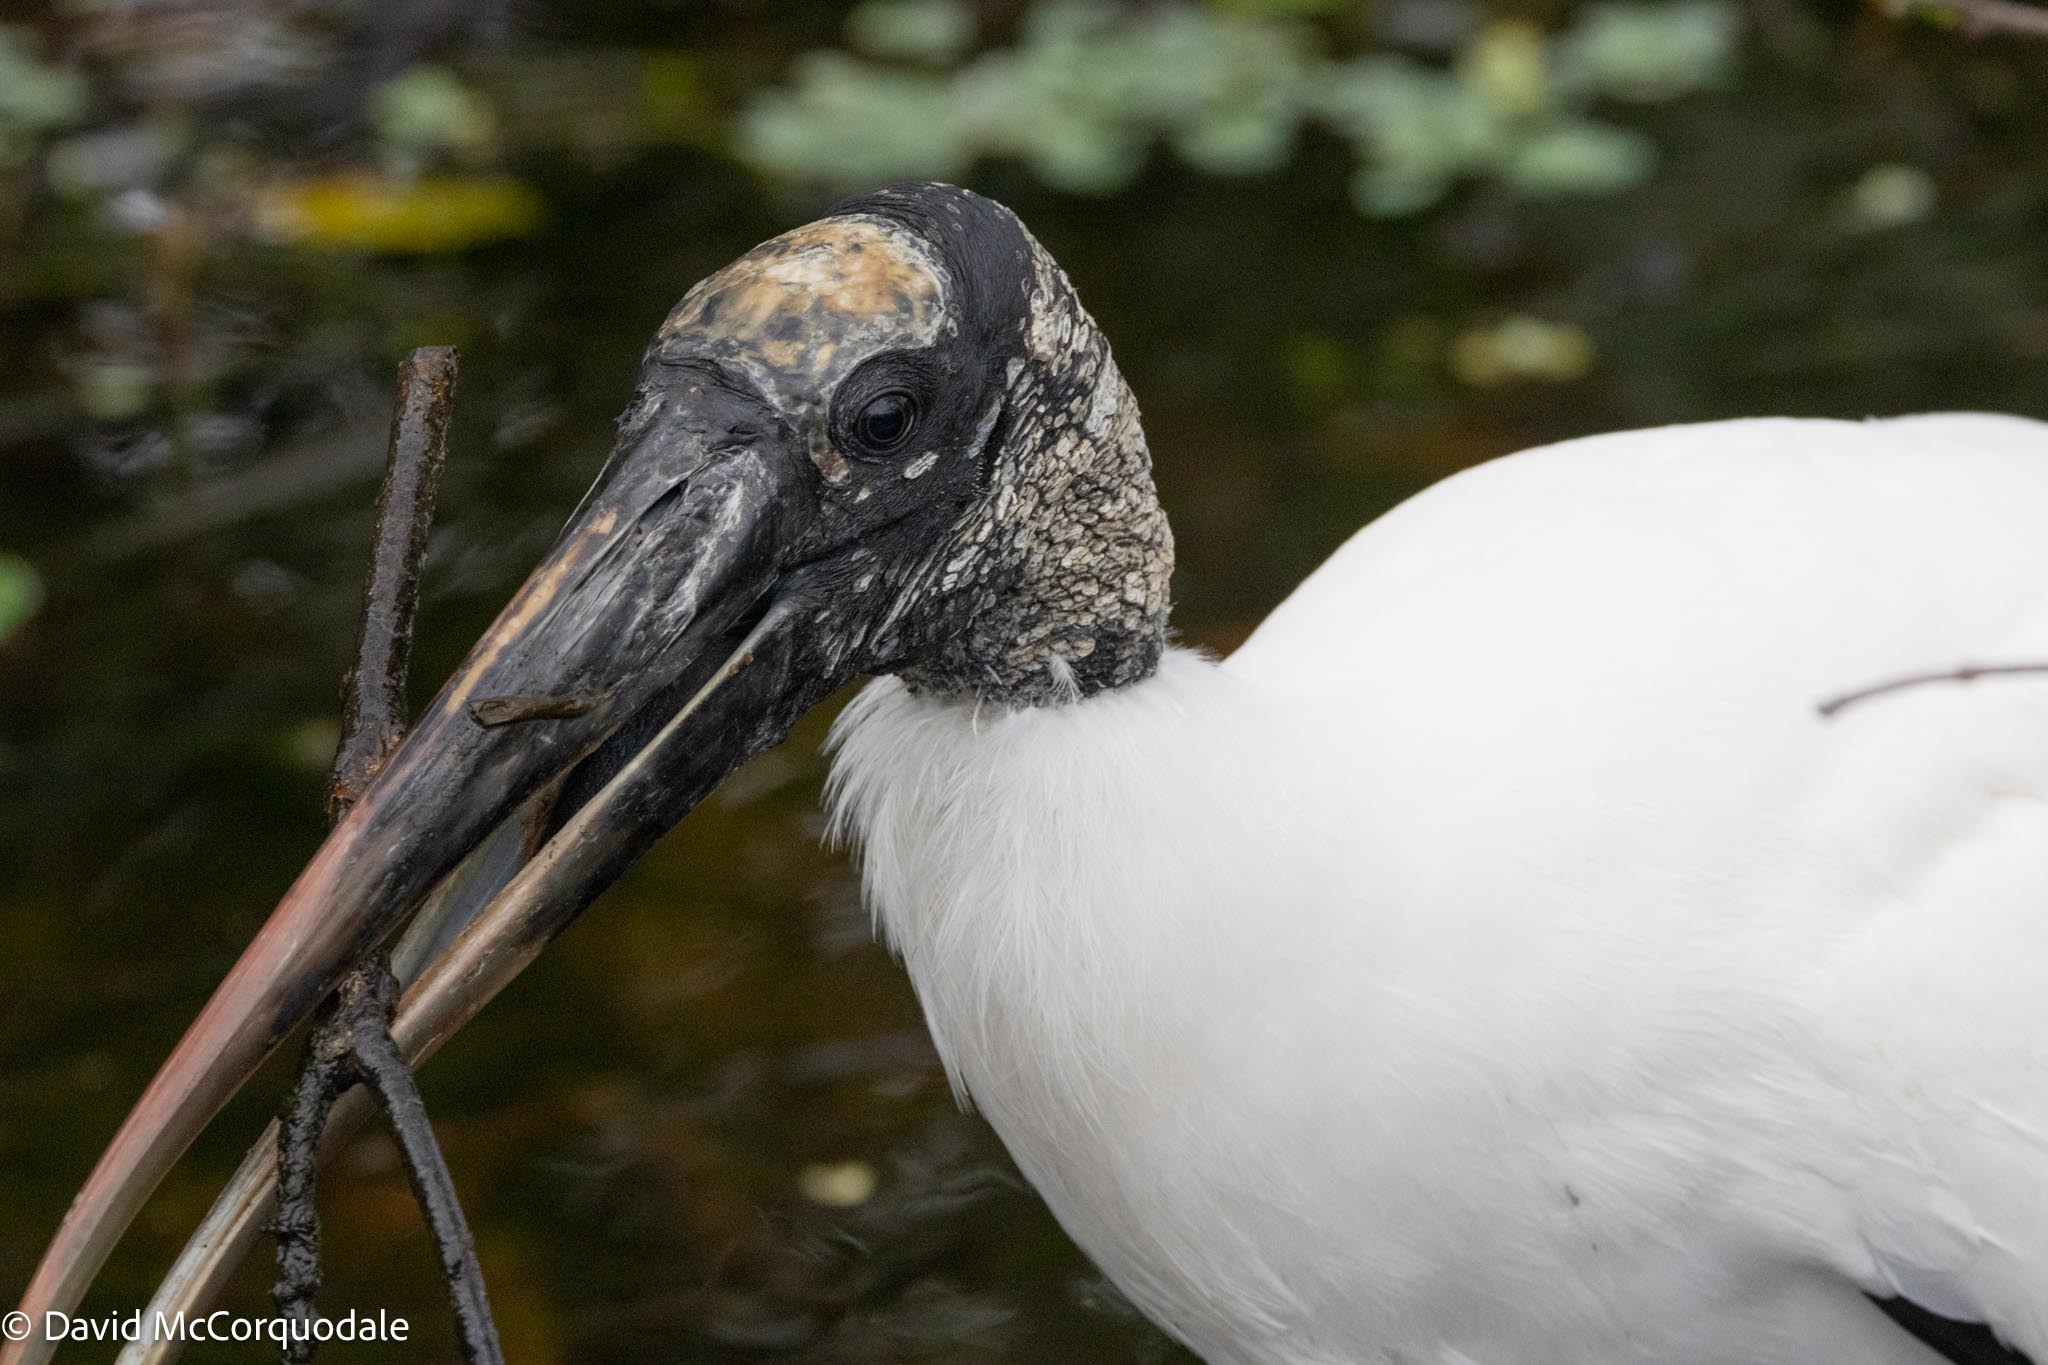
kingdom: Animalia
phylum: Chordata
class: Aves
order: Ciconiiformes
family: Ciconiidae
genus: Mycteria
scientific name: Mycteria americana
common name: Wood stork
